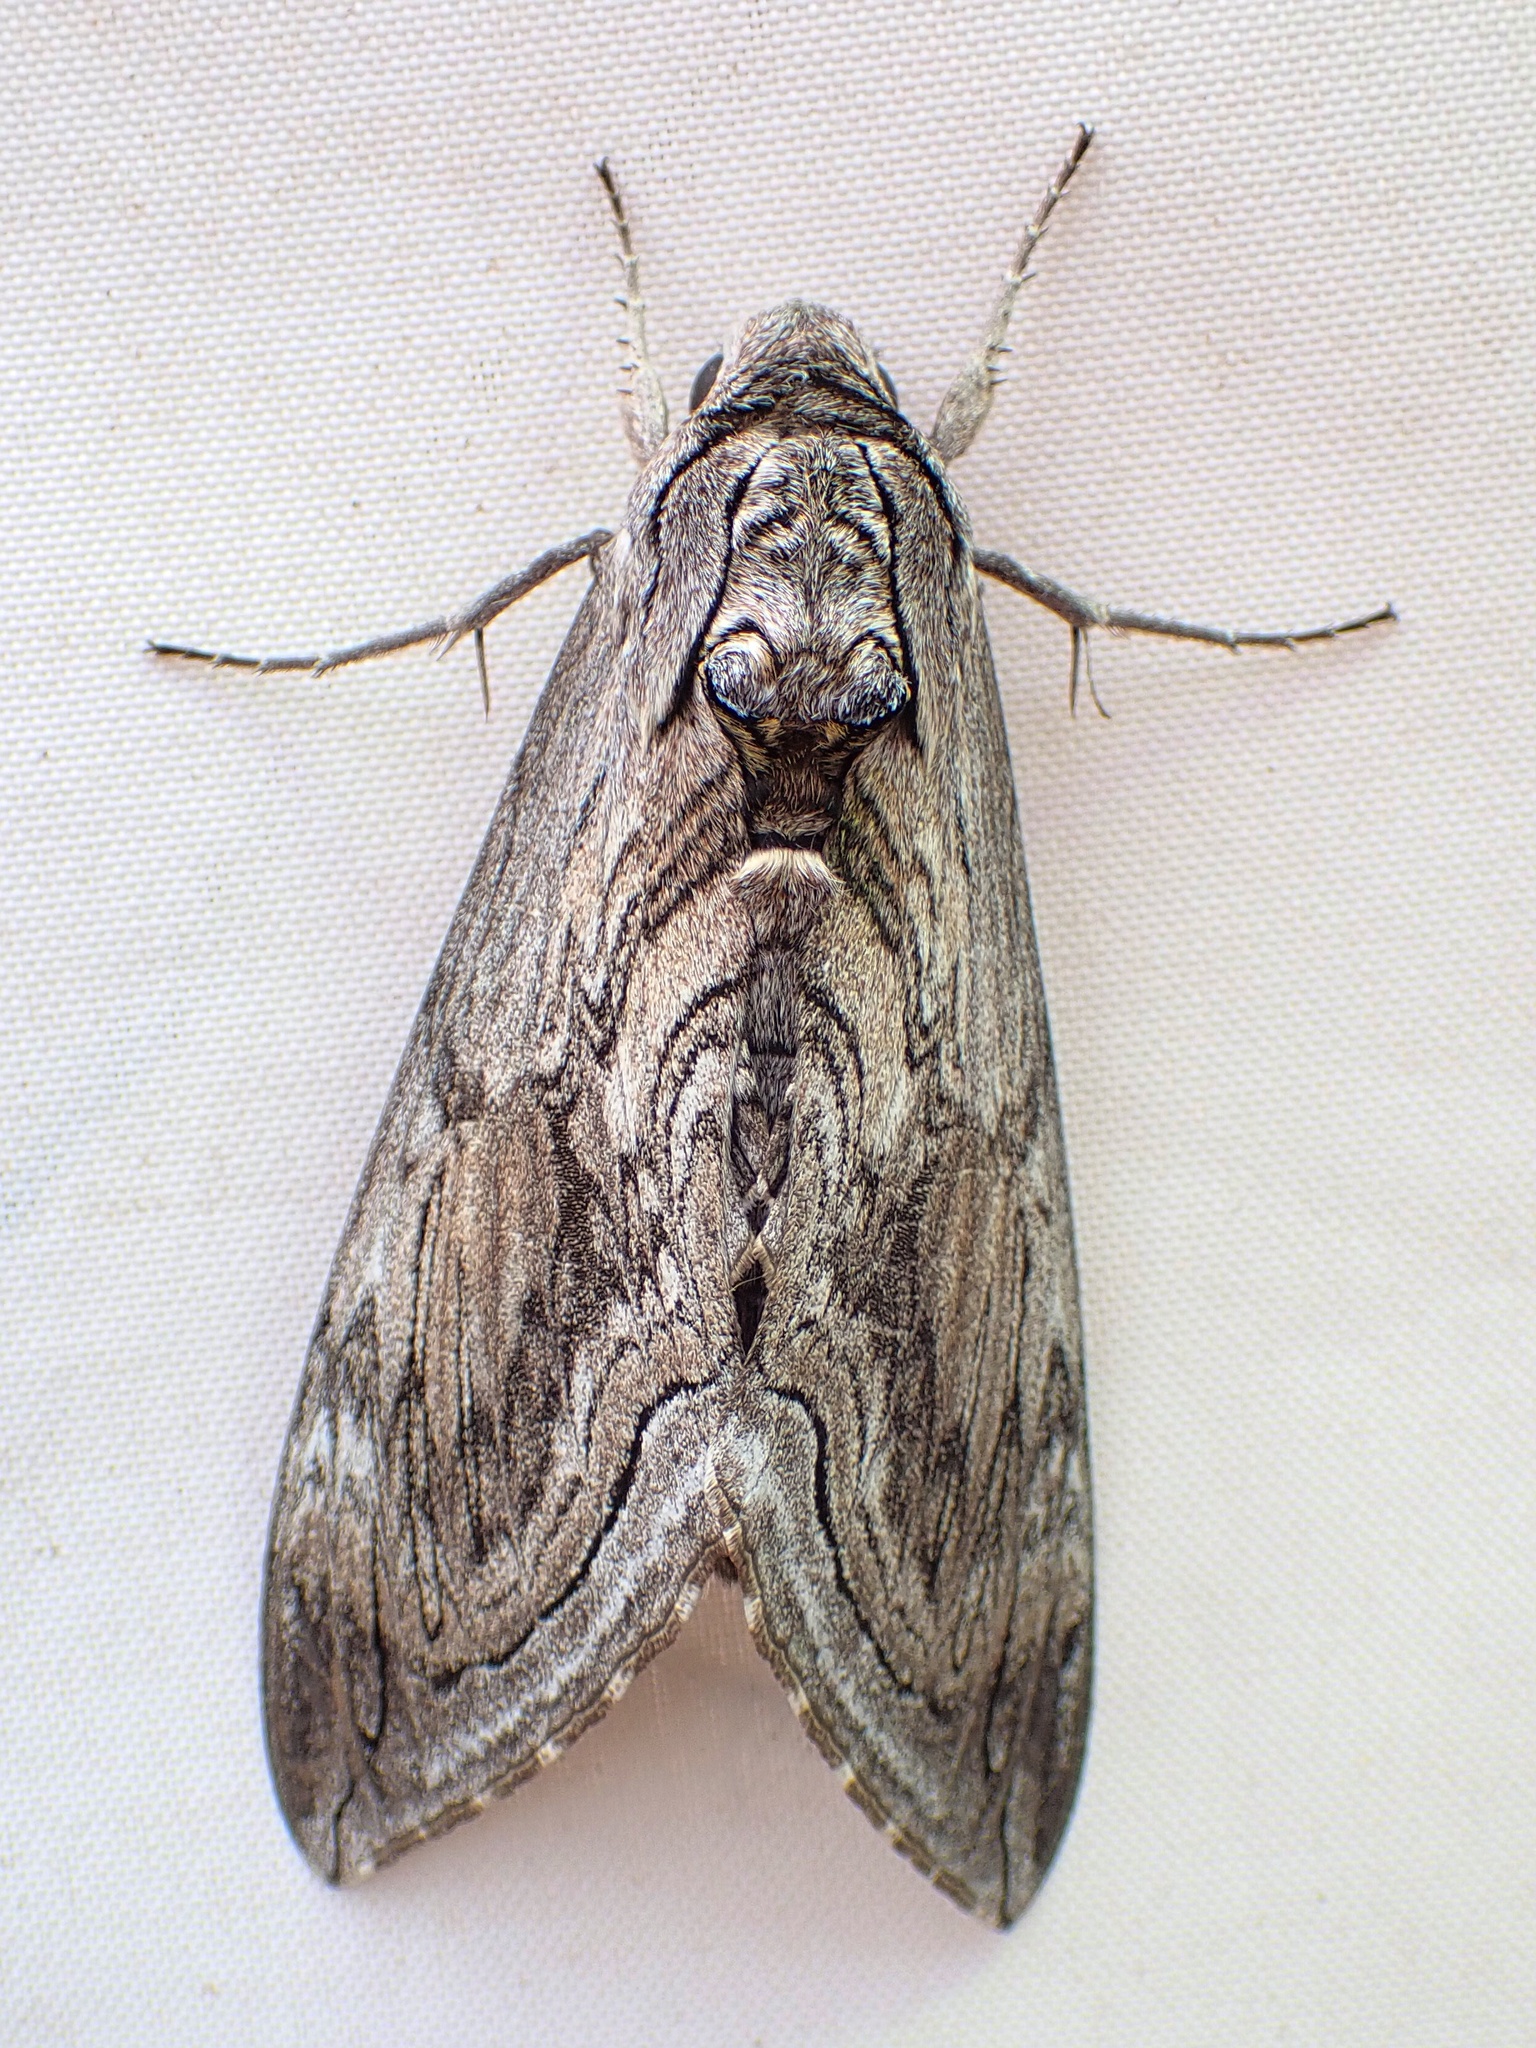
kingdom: Animalia
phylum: Arthropoda
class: Insecta
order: Lepidoptera
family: Sphingidae
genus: Manduca
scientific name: Manduca quinquemaculatus
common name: Five-spotted hawk-moth
